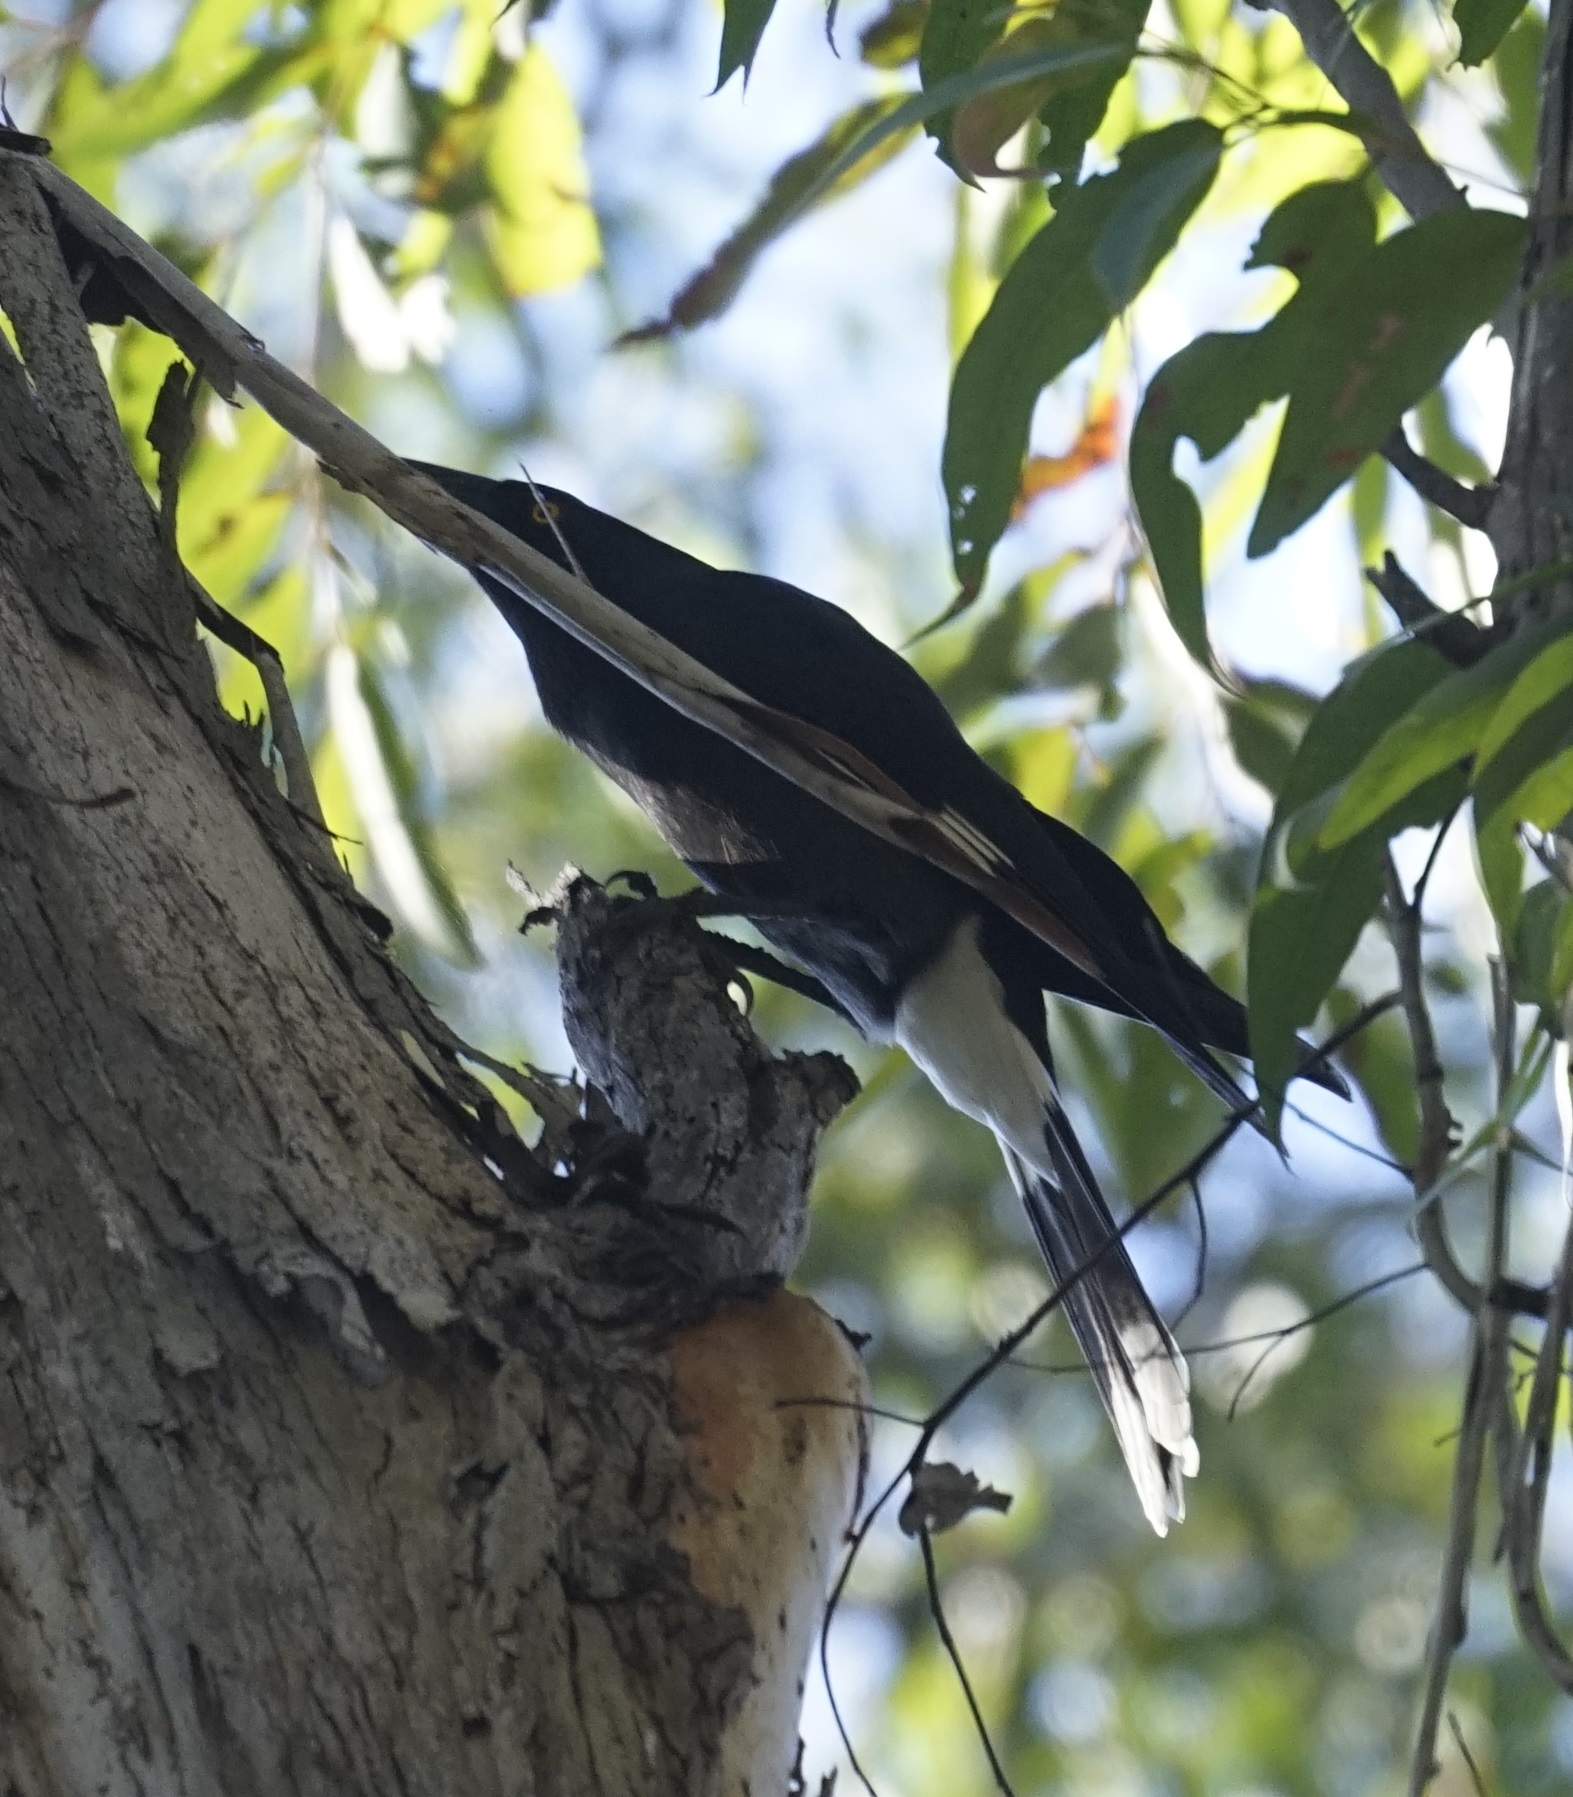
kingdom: Animalia
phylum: Chordata
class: Aves
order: Passeriformes
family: Cracticidae
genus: Strepera
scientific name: Strepera graculina
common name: Pied currawong
